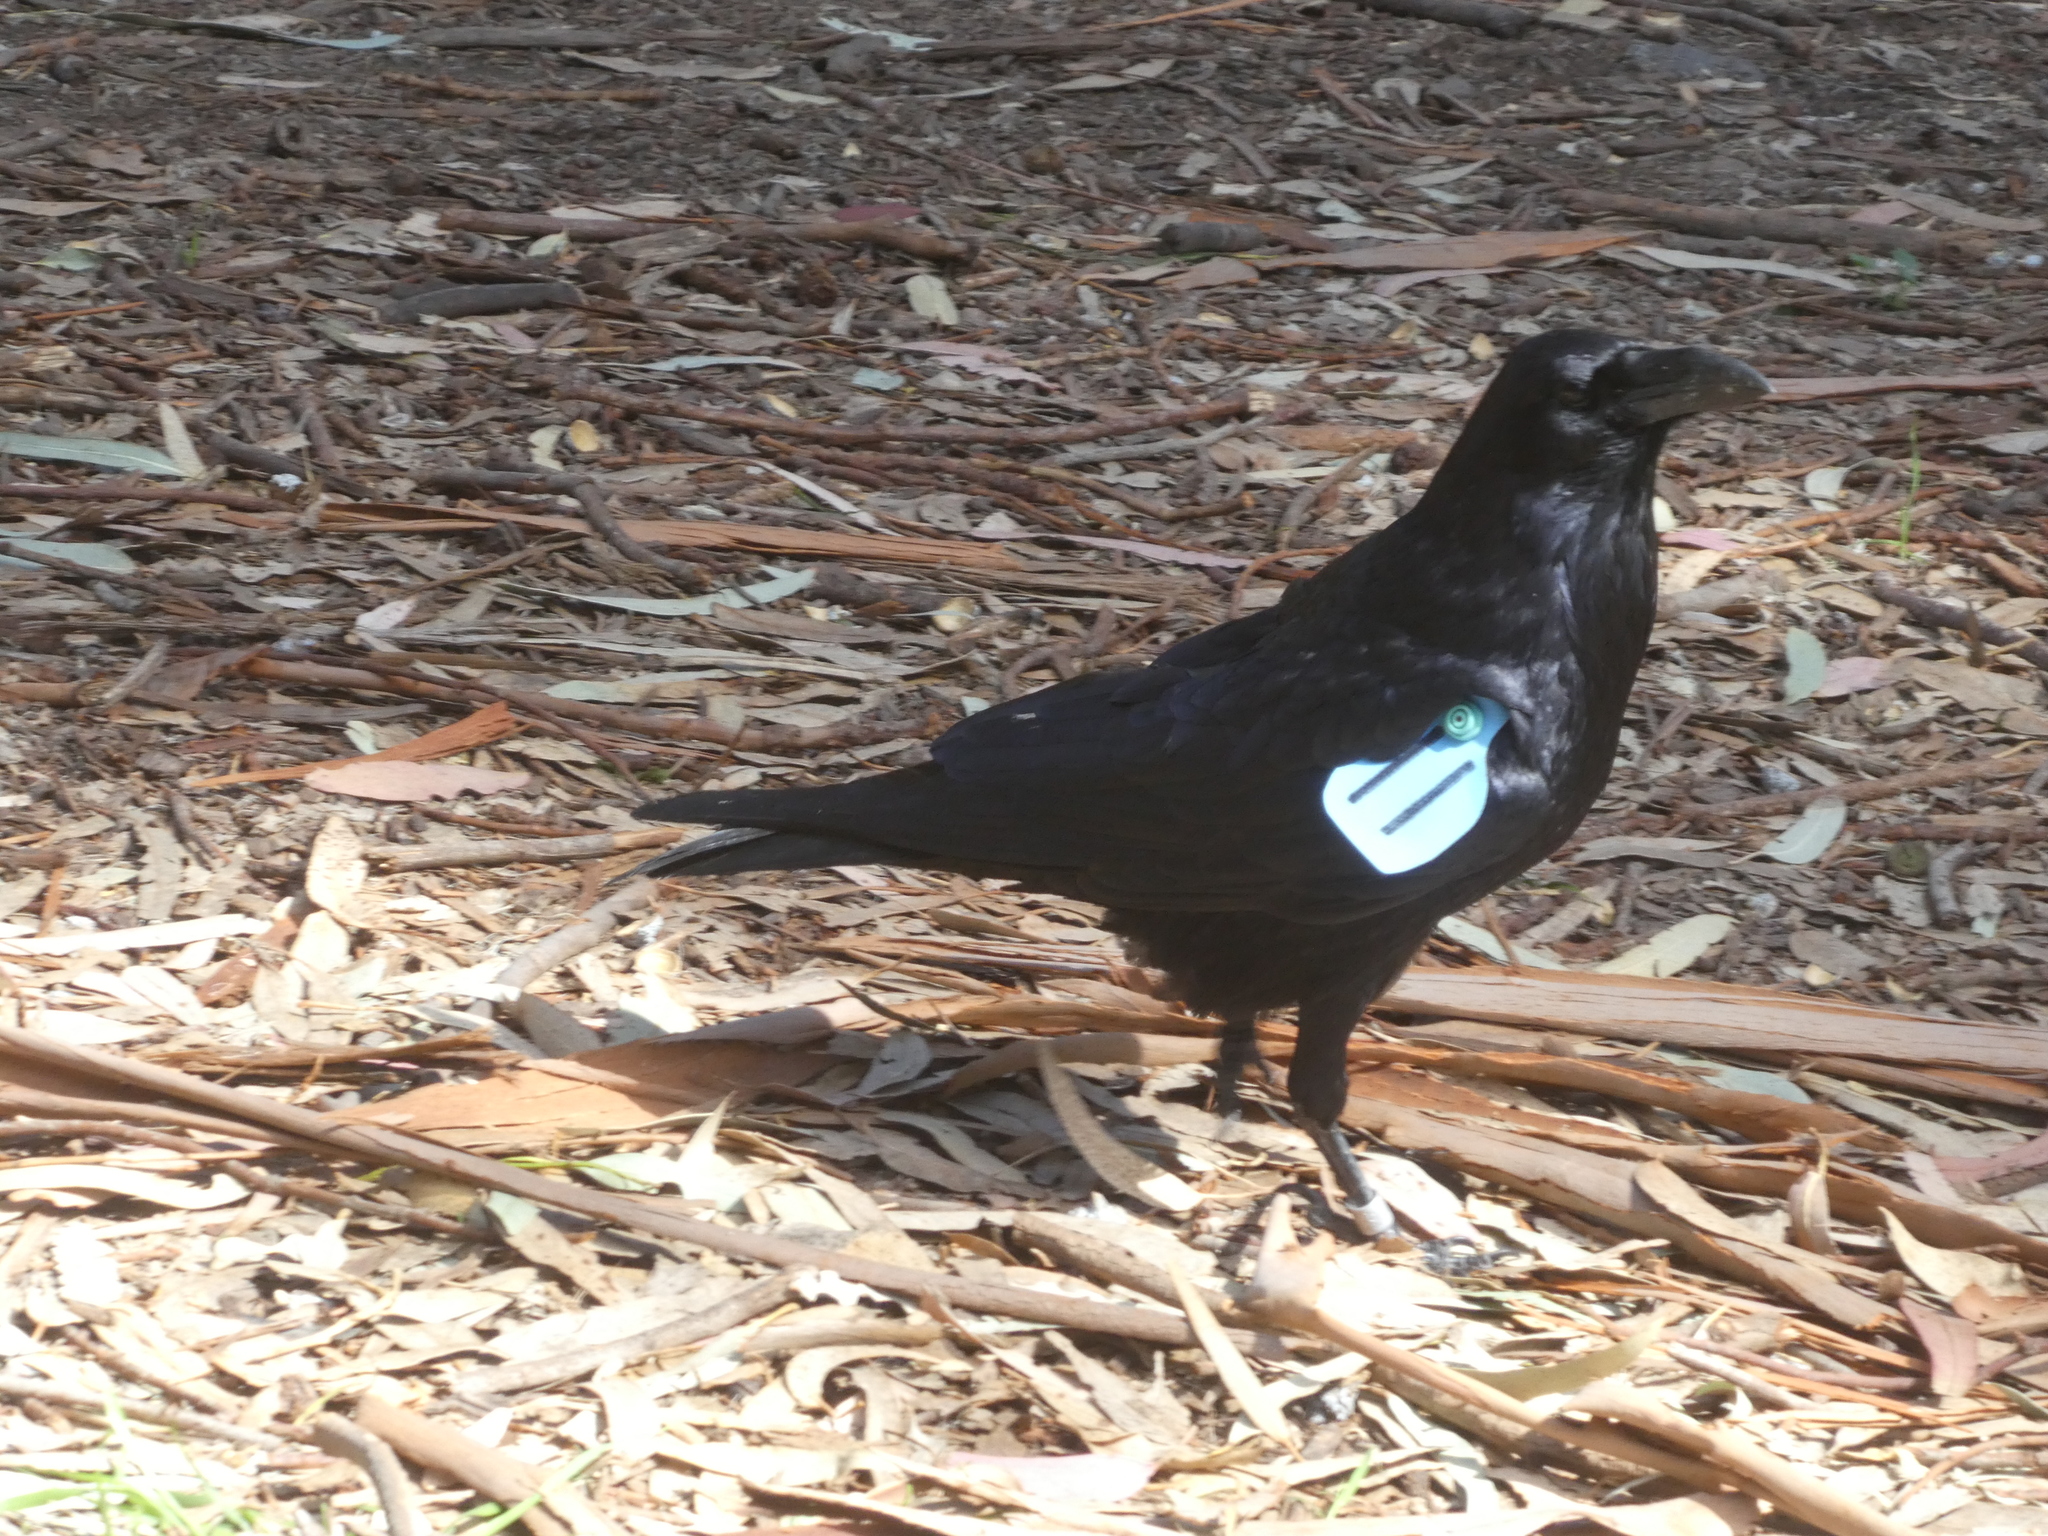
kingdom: Animalia
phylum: Chordata
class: Aves
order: Passeriformes
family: Corvidae
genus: Corvus
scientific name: Corvus corax
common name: Common raven
